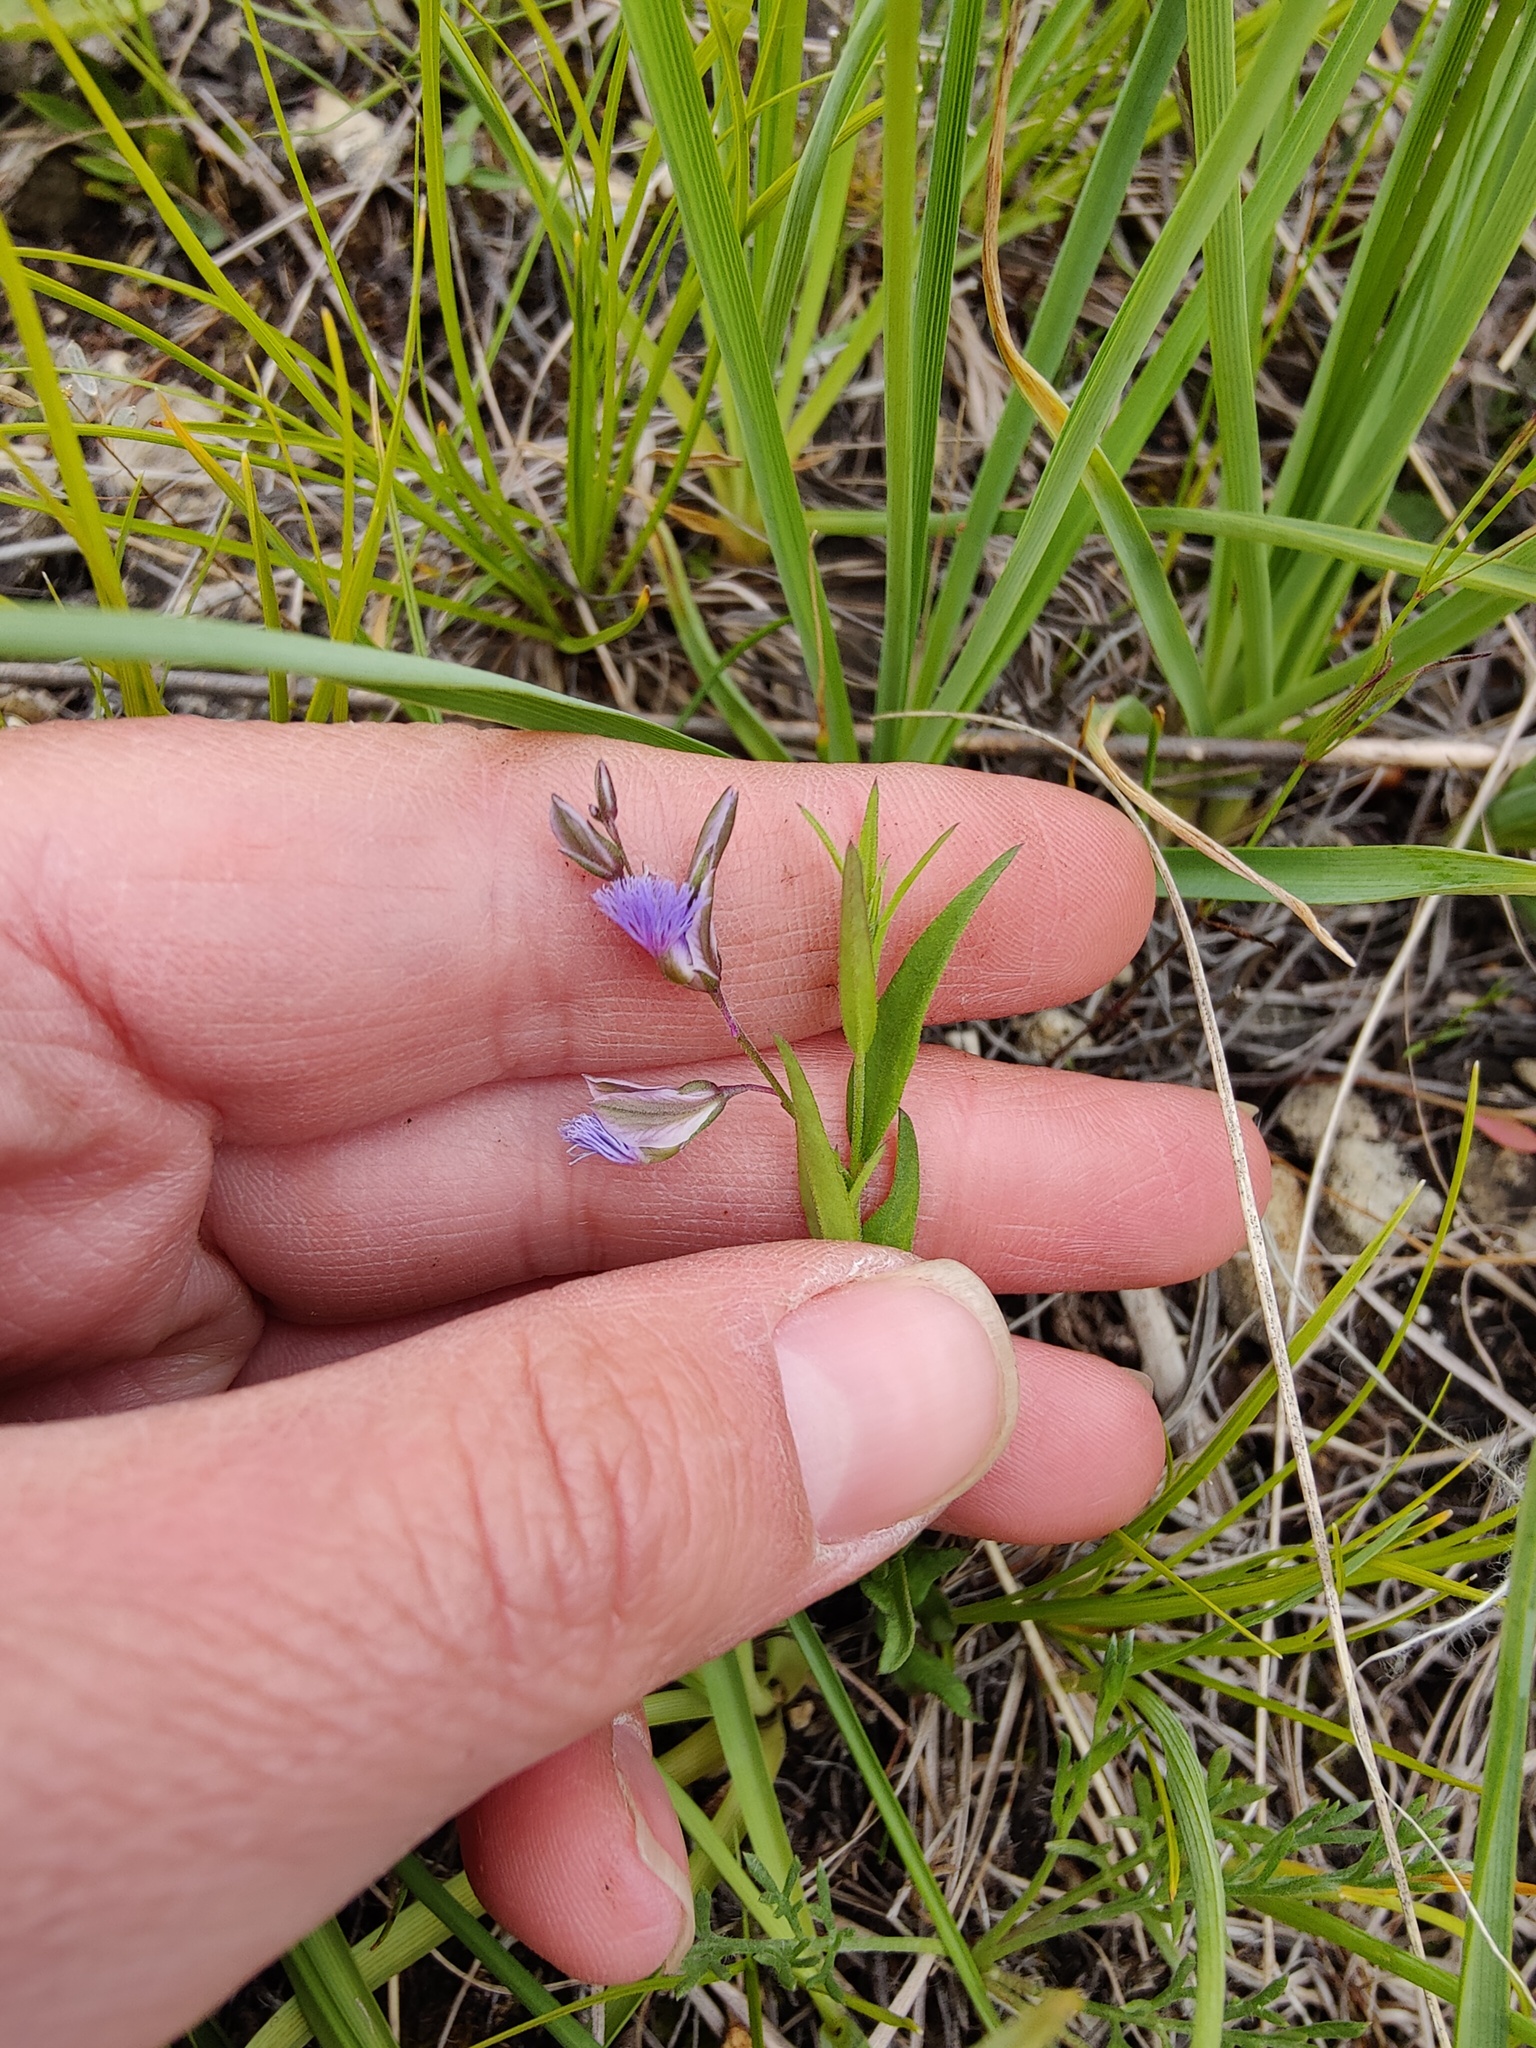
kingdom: Plantae
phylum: Tracheophyta
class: Magnoliopsida
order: Fabales
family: Polygalaceae
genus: Polygala
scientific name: Polygala sibirica
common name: Siberian polygala
